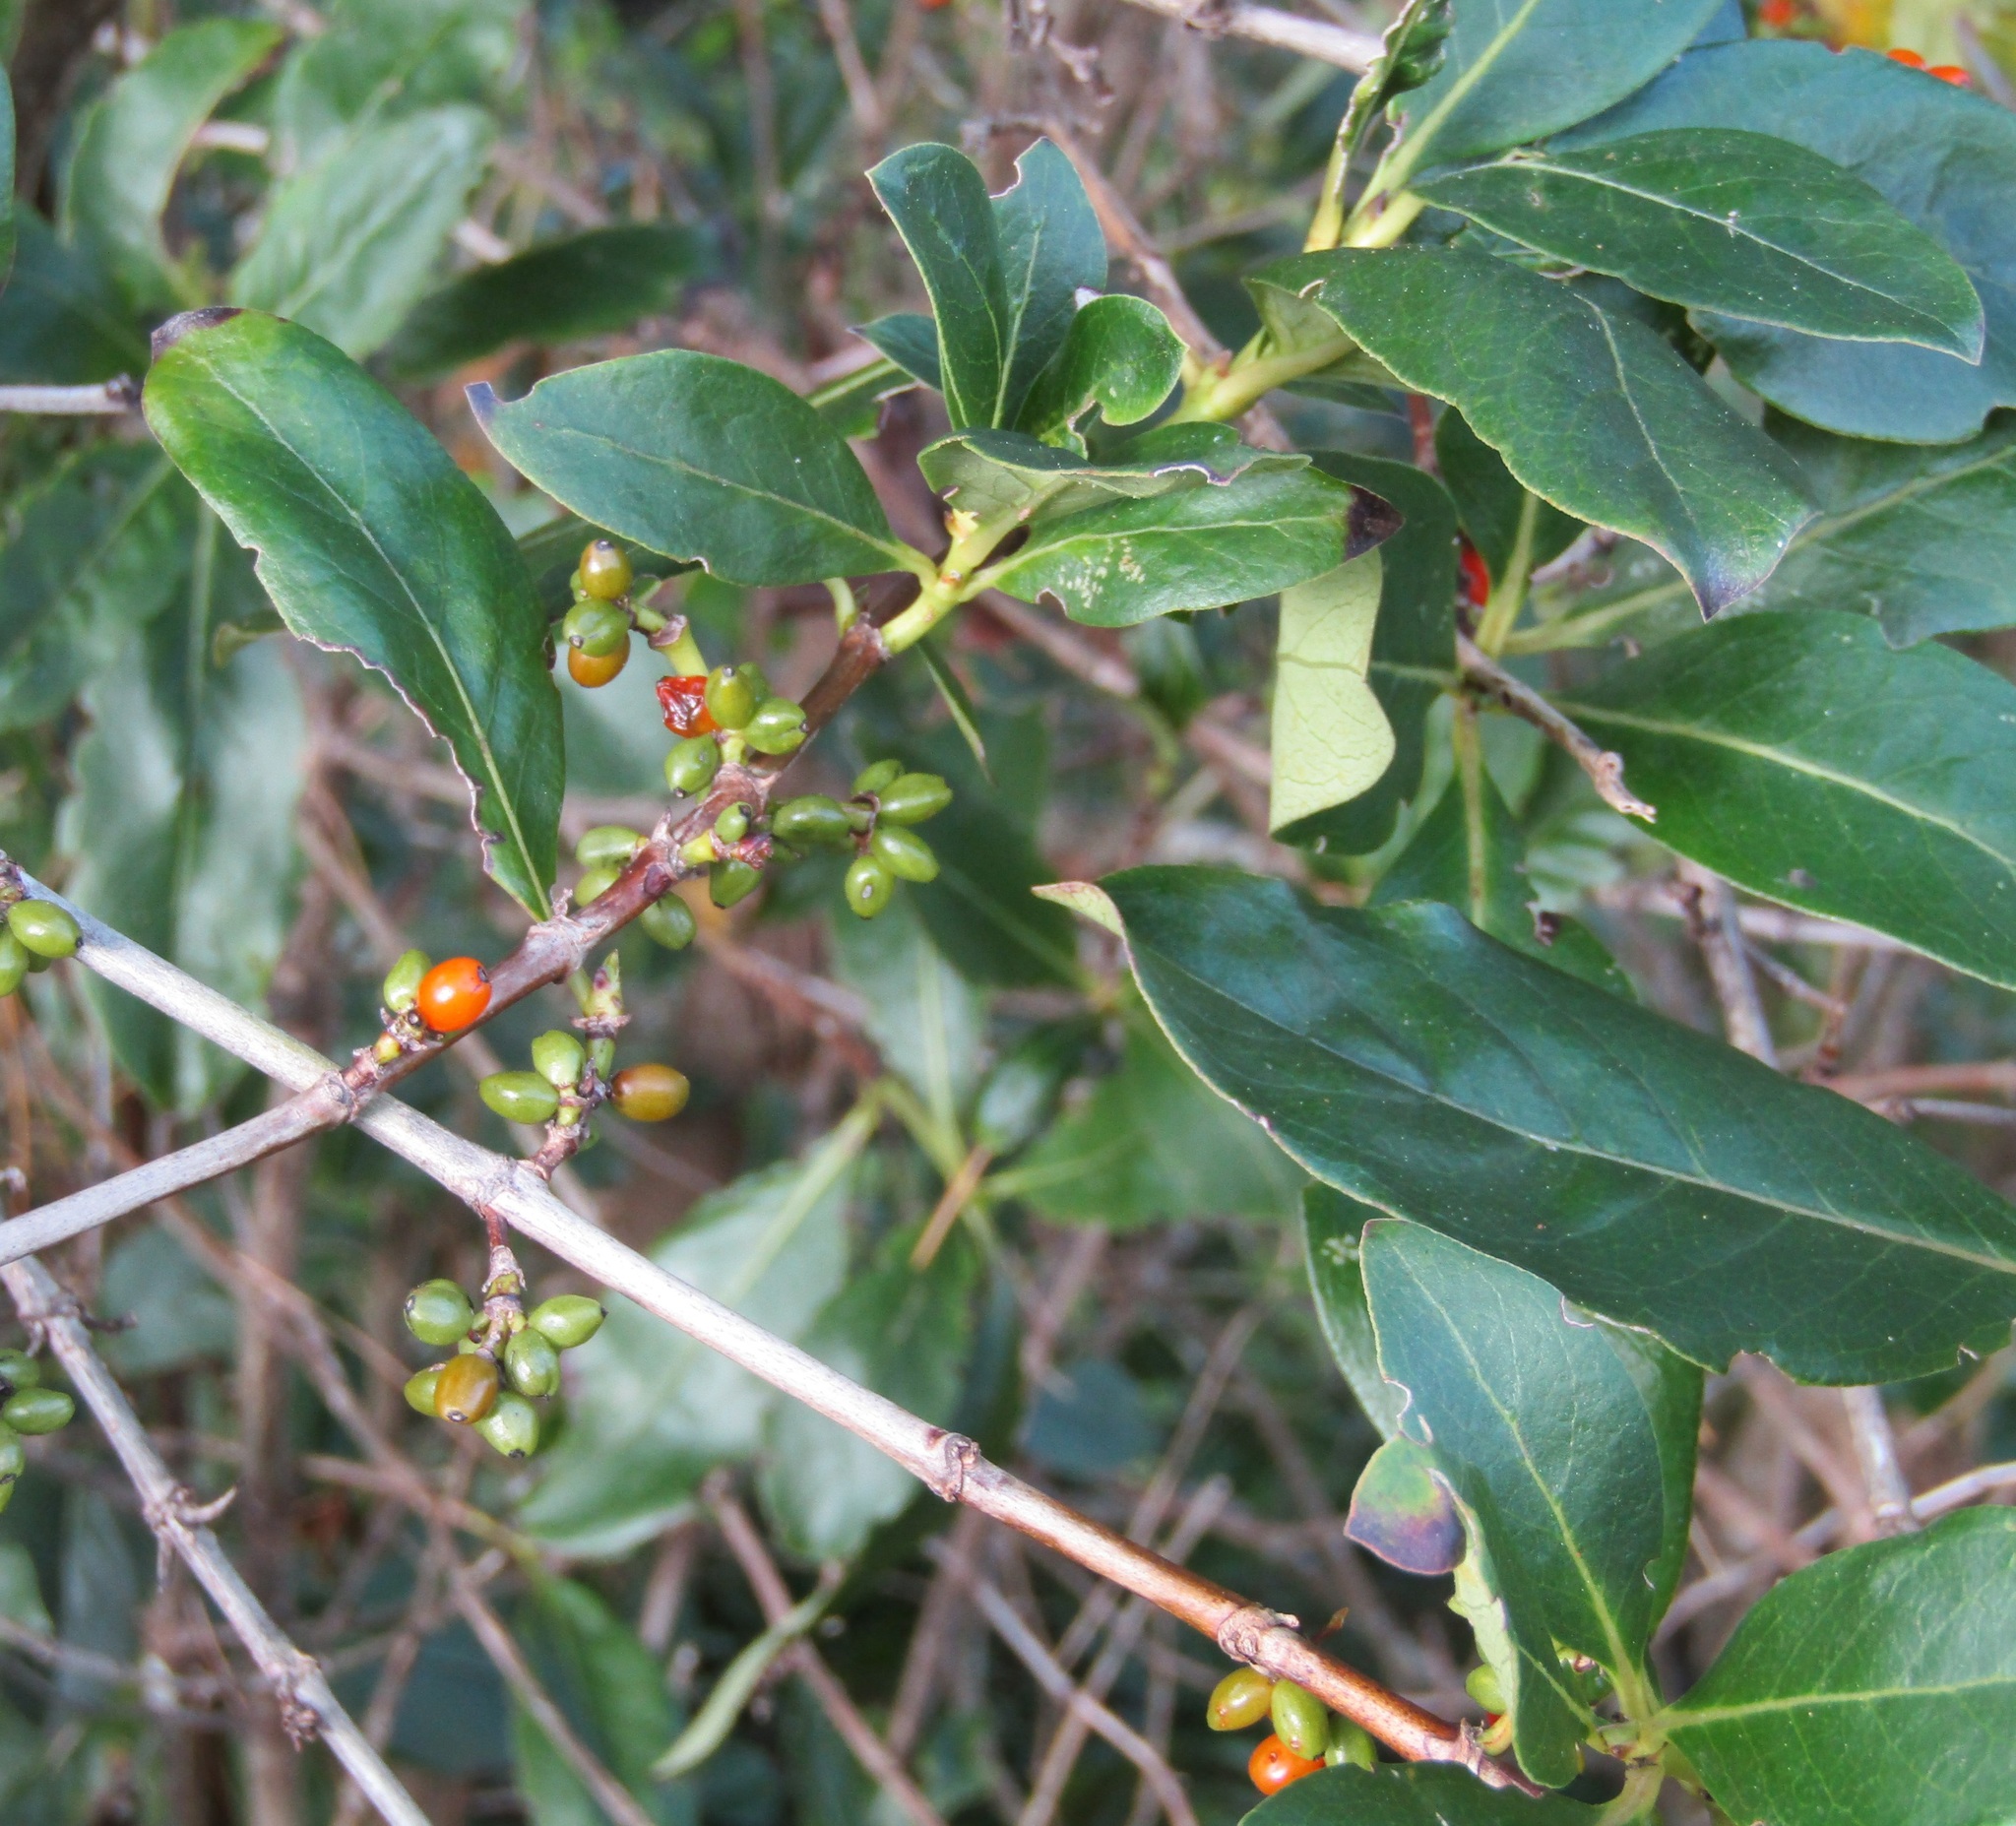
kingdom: Plantae
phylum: Tracheophyta
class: Magnoliopsida
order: Gentianales
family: Rubiaceae
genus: Coprosma
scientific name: Coprosma robusta
